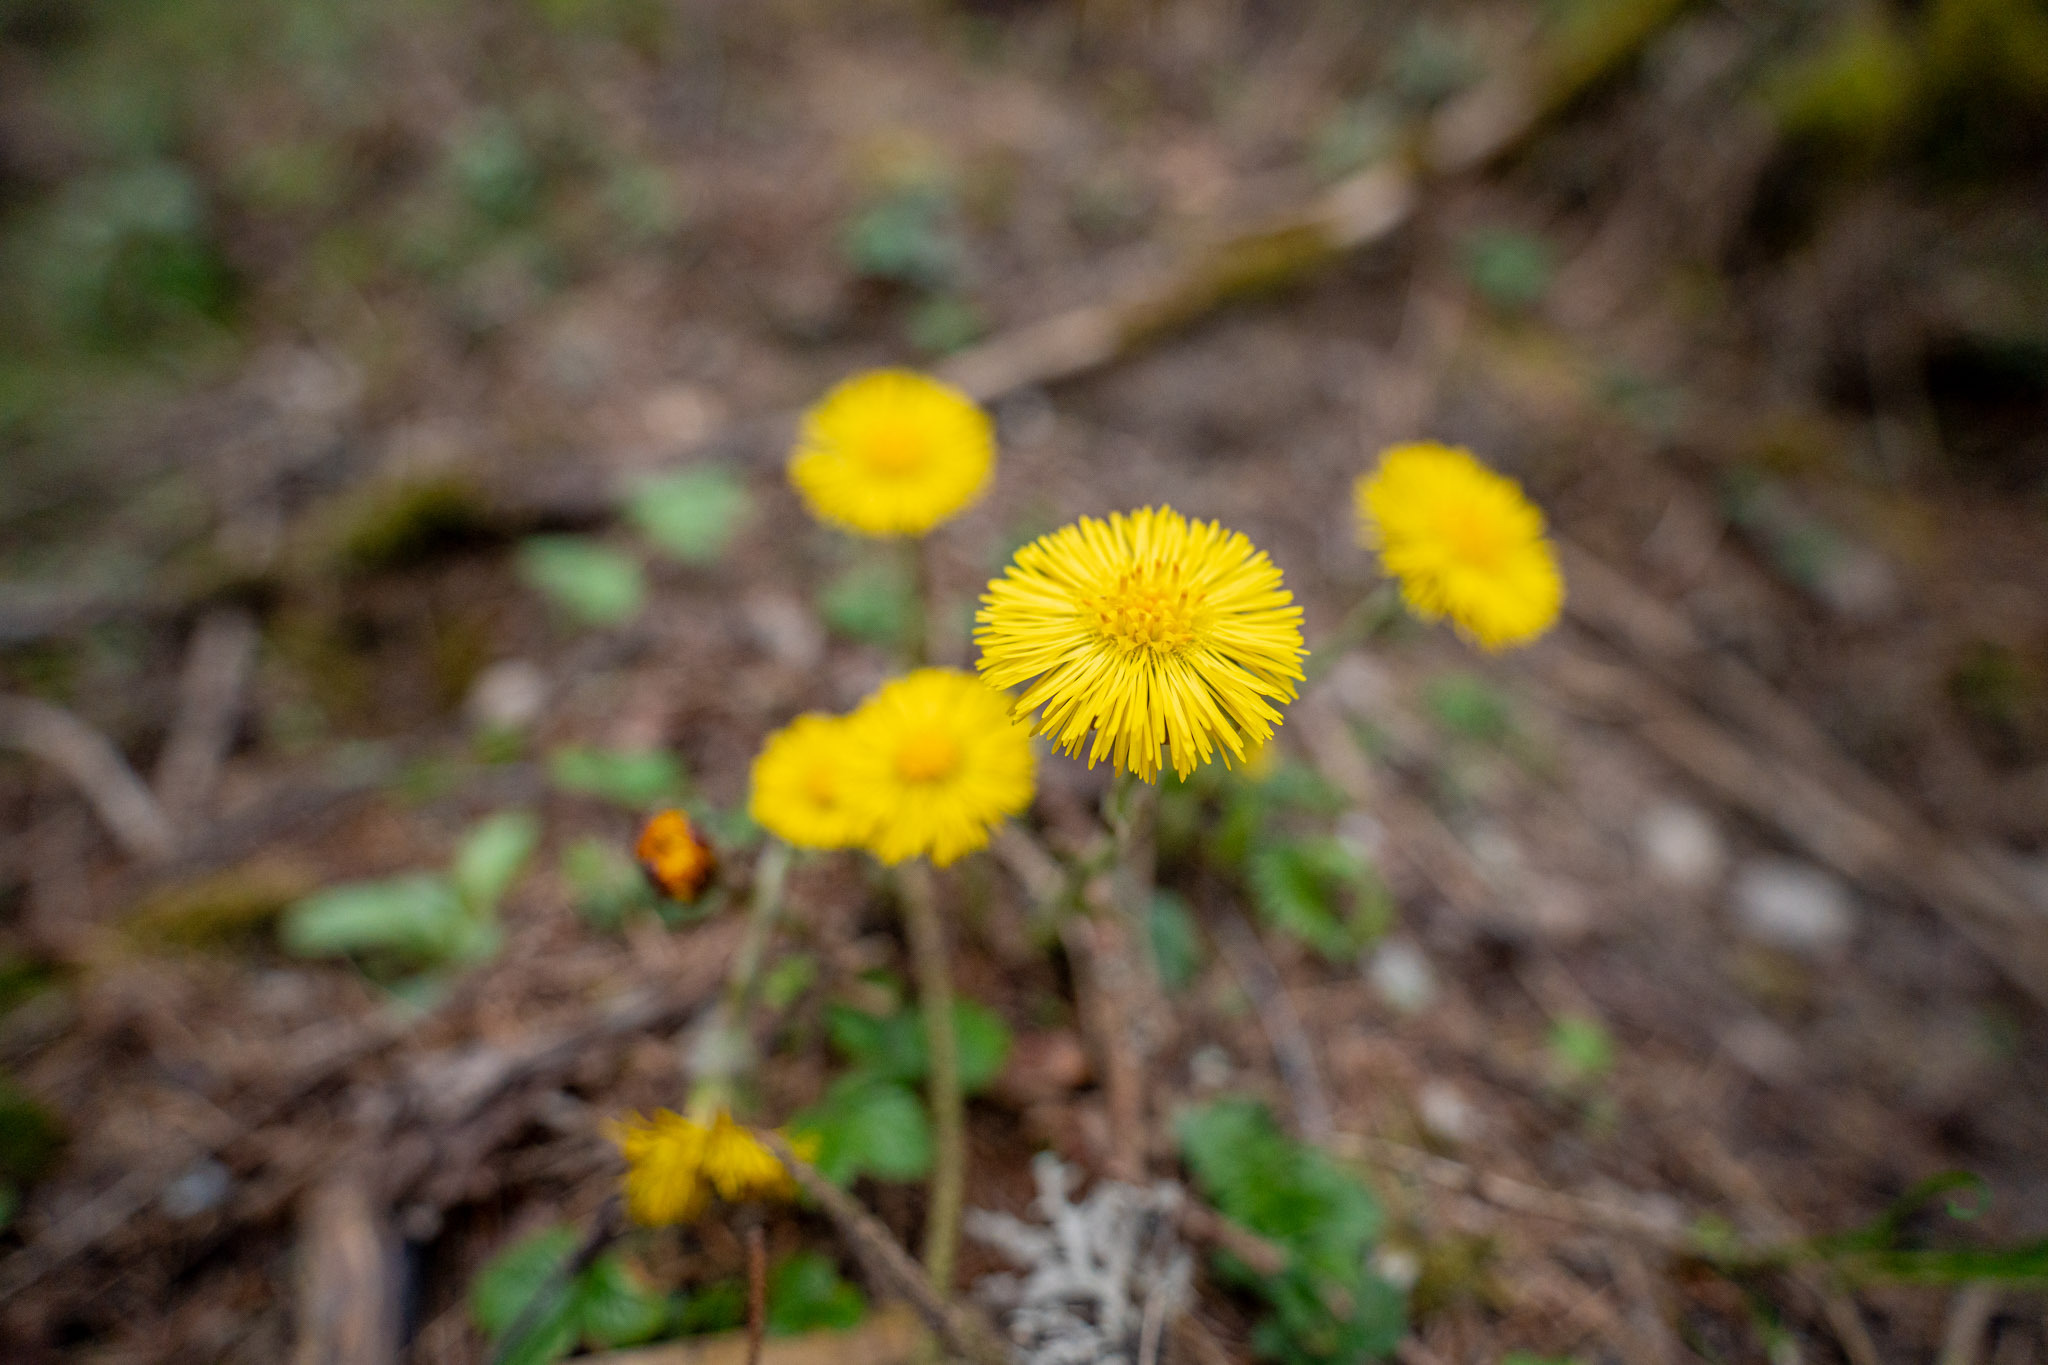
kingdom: Plantae
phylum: Tracheophyta
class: Magnoliopsida
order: Asterales
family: Asteraceae
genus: Tussilago
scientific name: Tussilago farfara
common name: Coltsfoot
